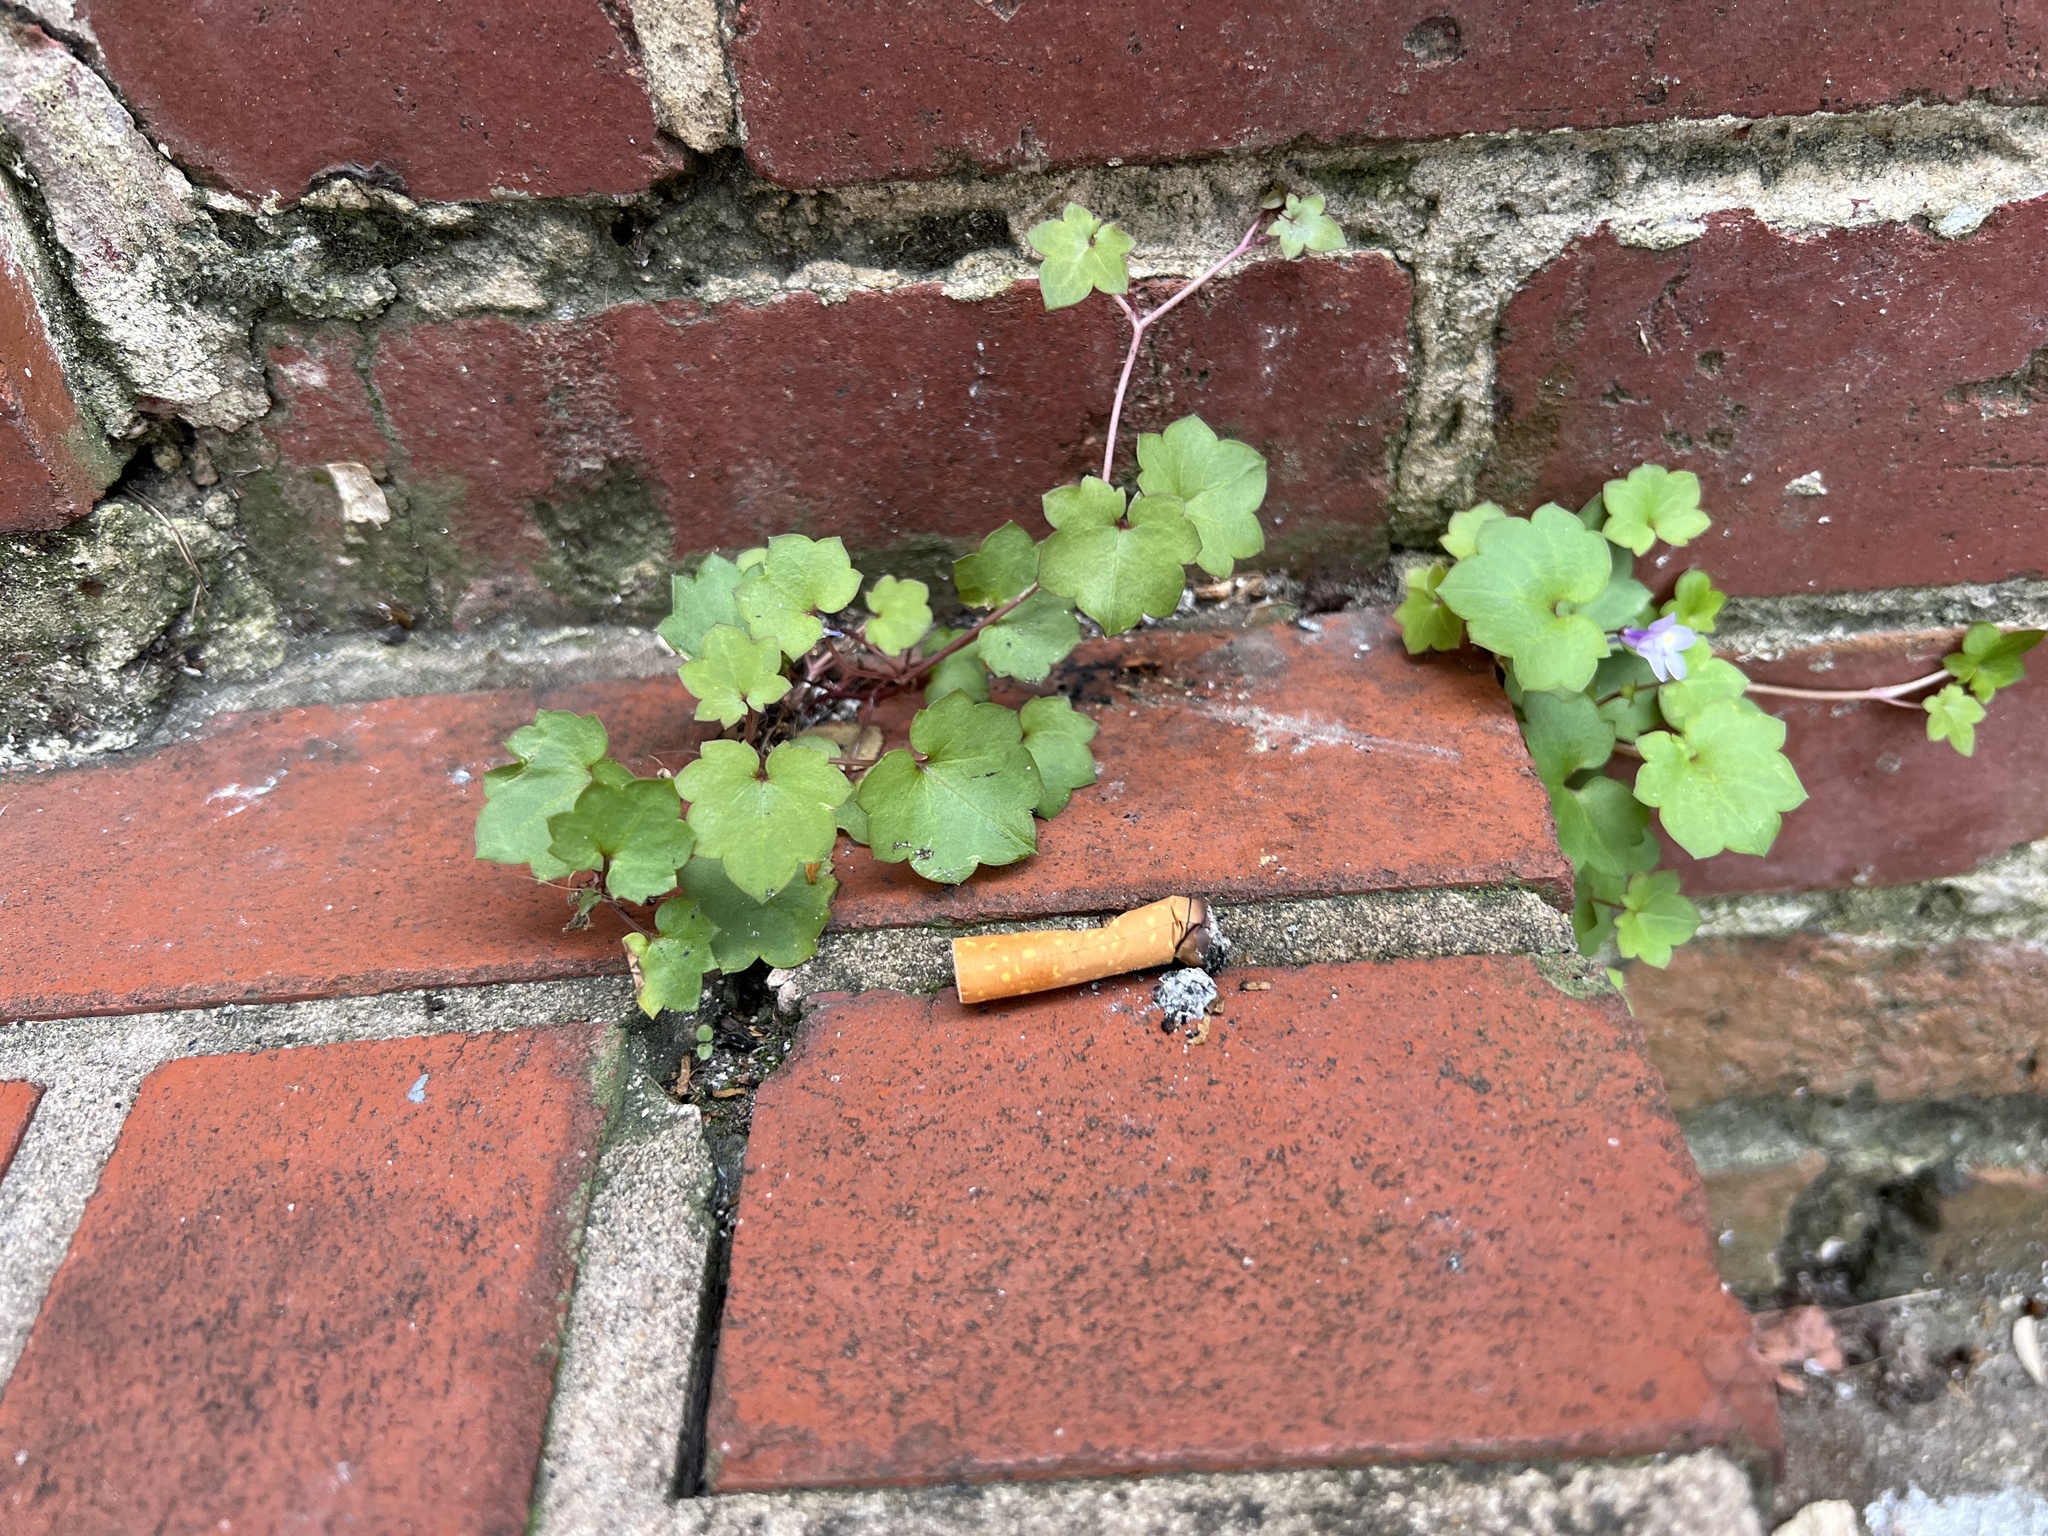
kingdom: Plantae
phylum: Tracheophyta
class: Magnoliopsida
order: Lamiales
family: Plantaginaceae
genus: Cymbalaria
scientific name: Cymbalaria muralis
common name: Ivy-leaved toadflax
